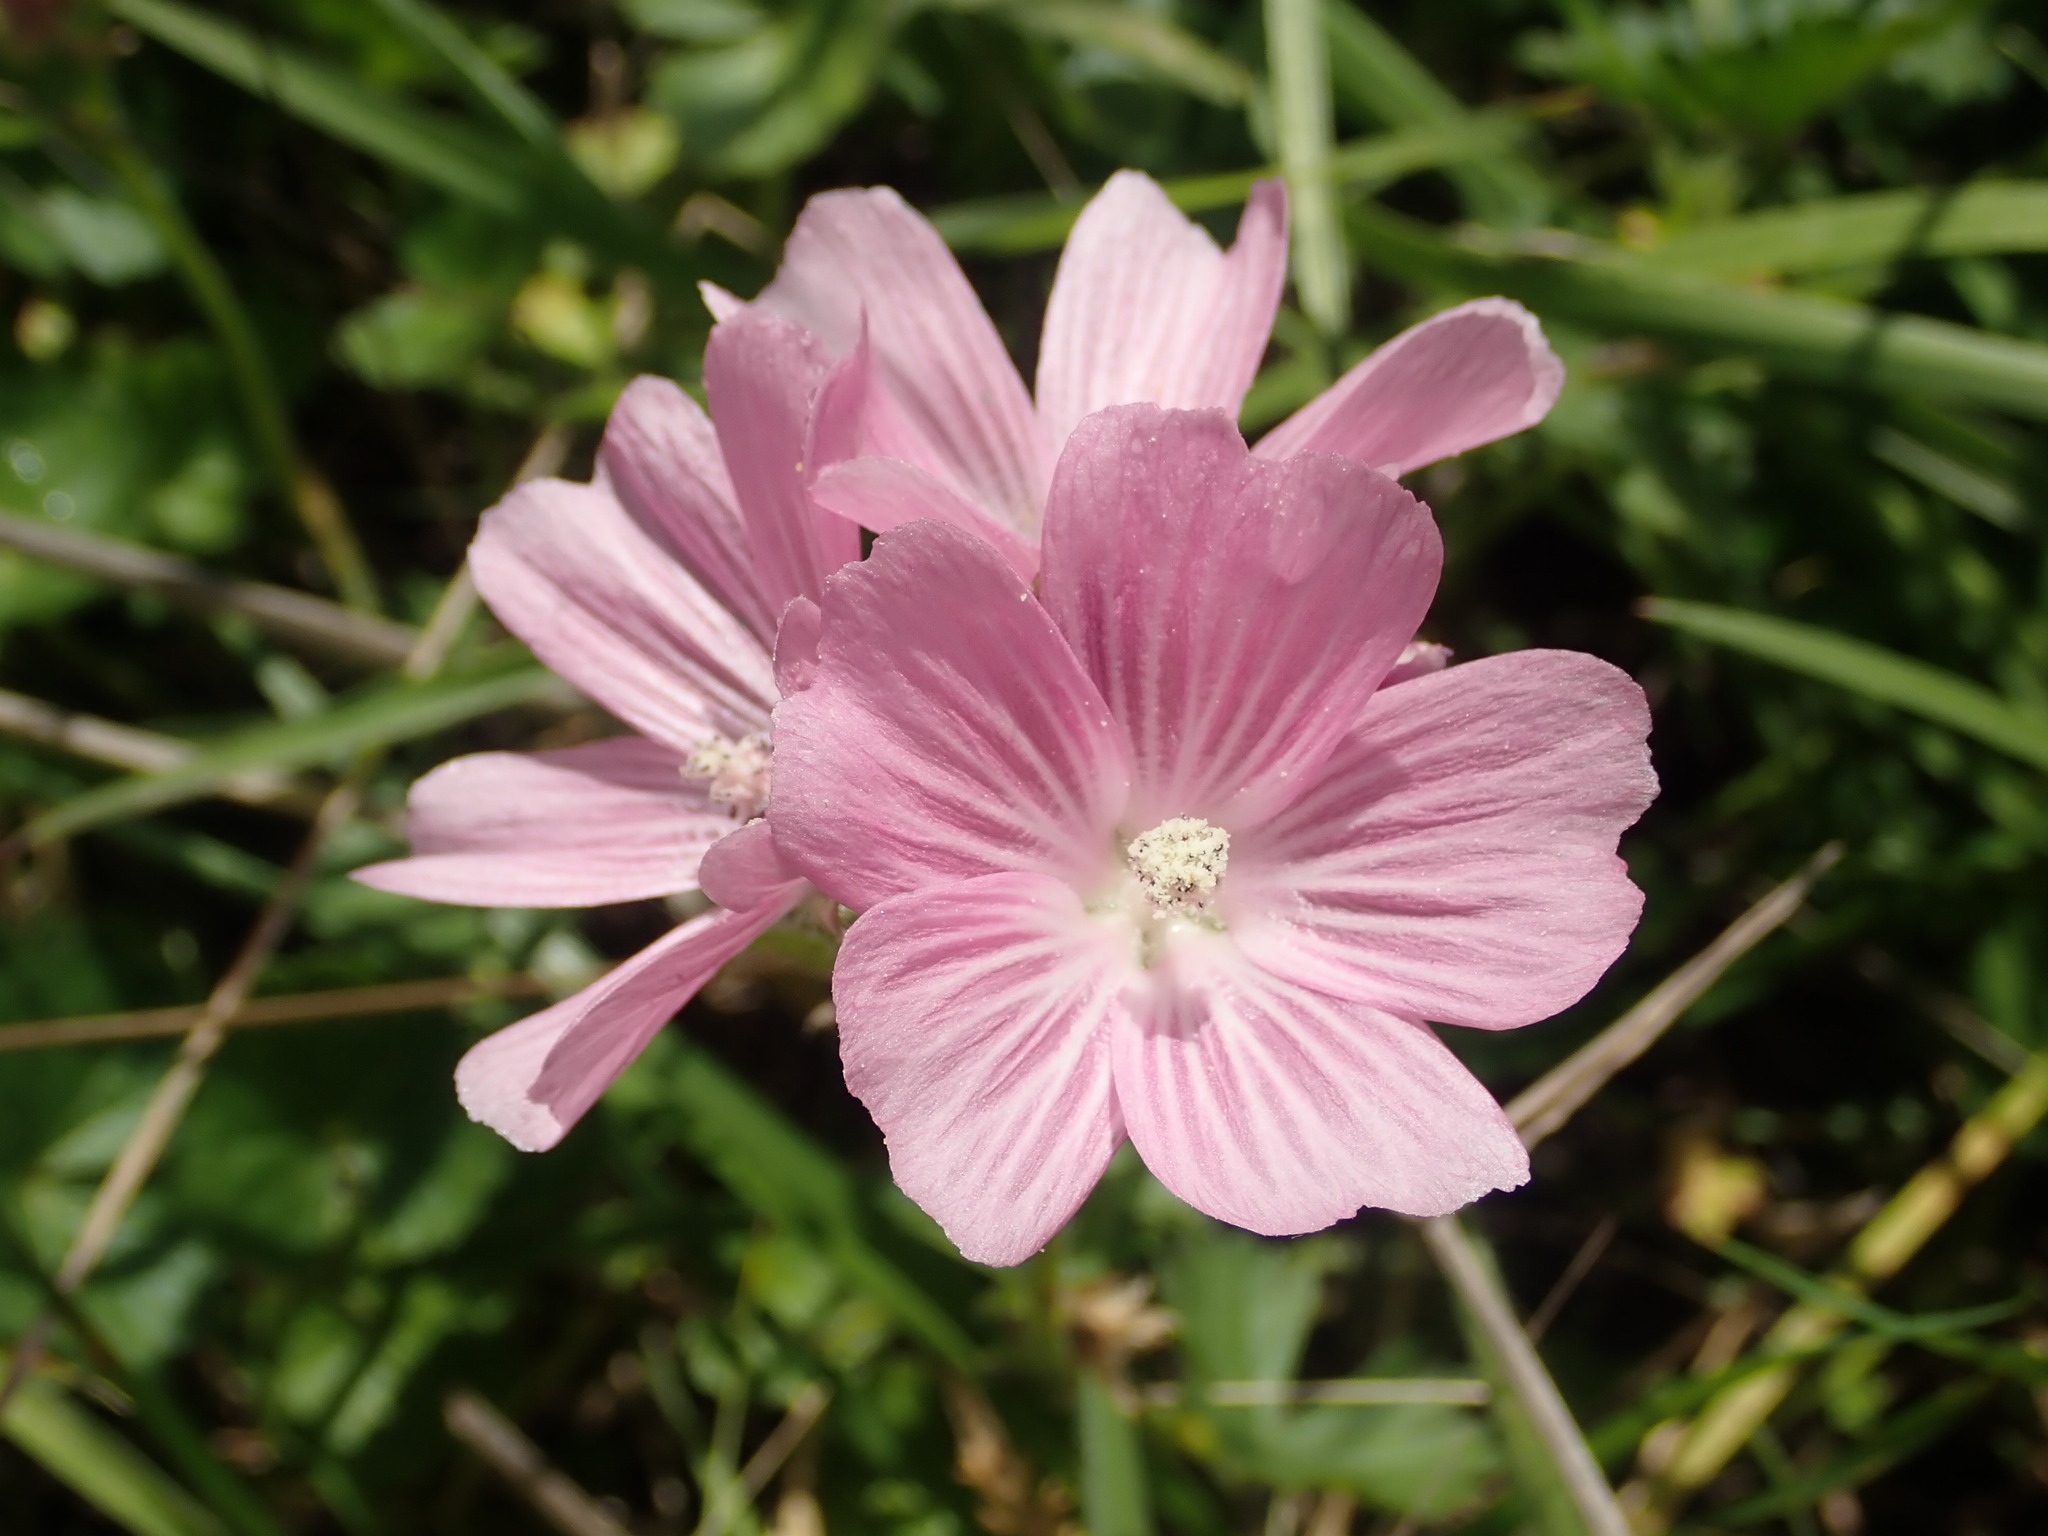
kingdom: Plantae
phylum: Tracheophyta
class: Magnoliopsida
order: Malvales
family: Malvaceae
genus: Sidalcea
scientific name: Sidalcea malviflora
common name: Greek mallow
